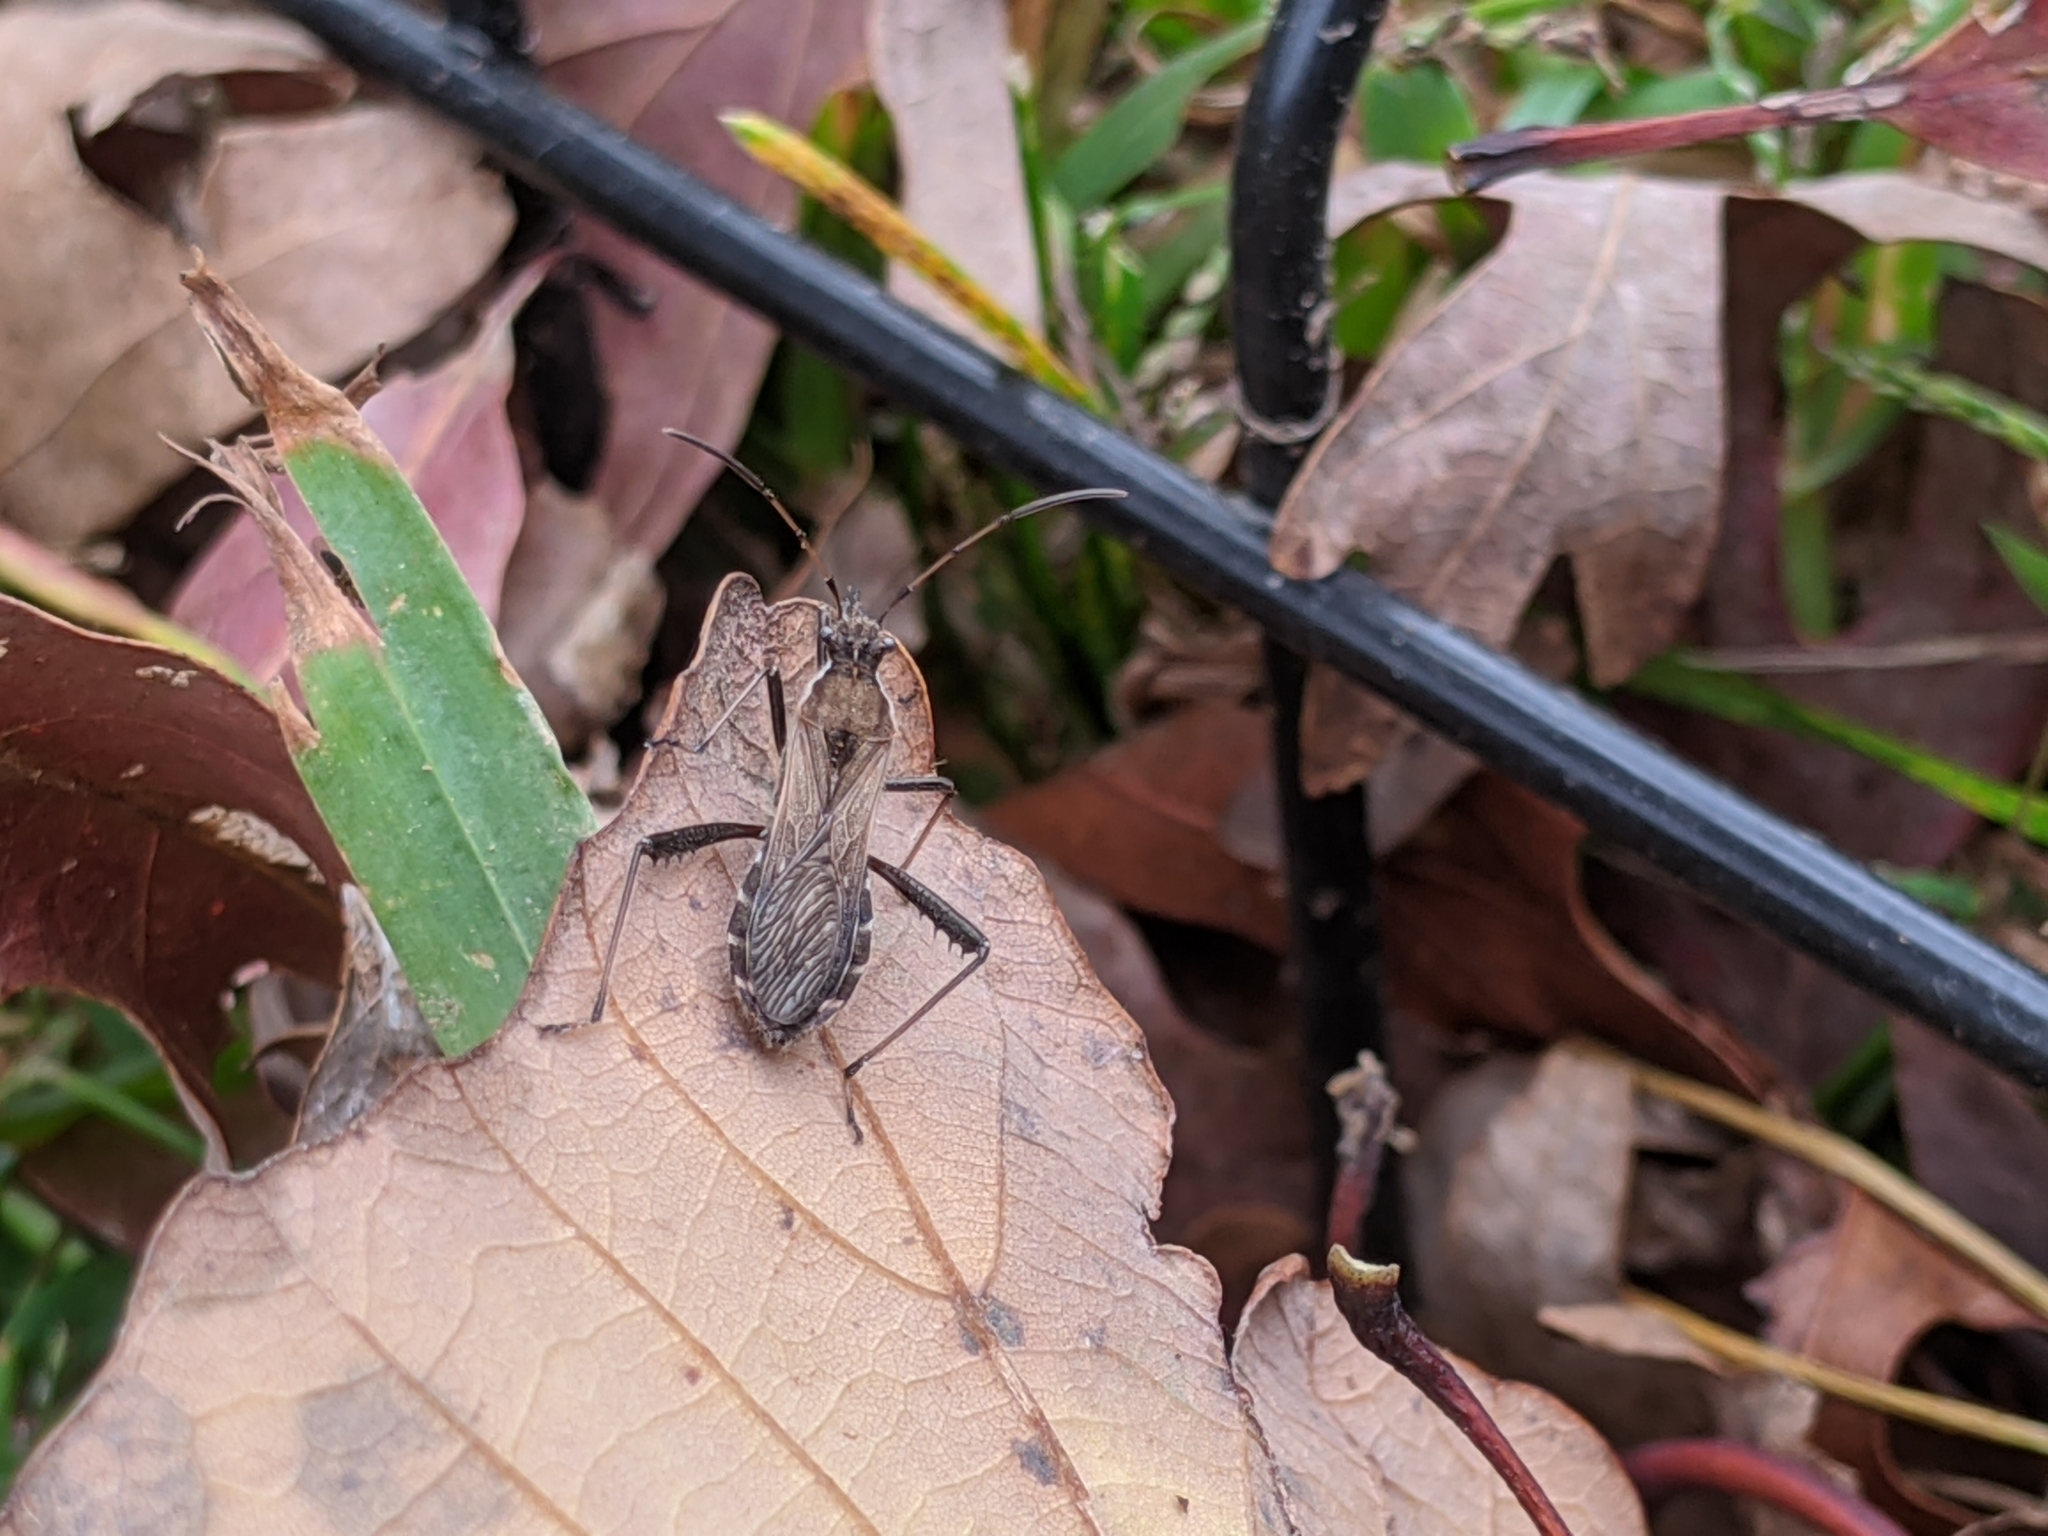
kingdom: Animalia
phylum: Arthropoda
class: Insecta
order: Hemiptera
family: Alydidae
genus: Alydus
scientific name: Alydus pilosulus
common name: Broad-headed bug
